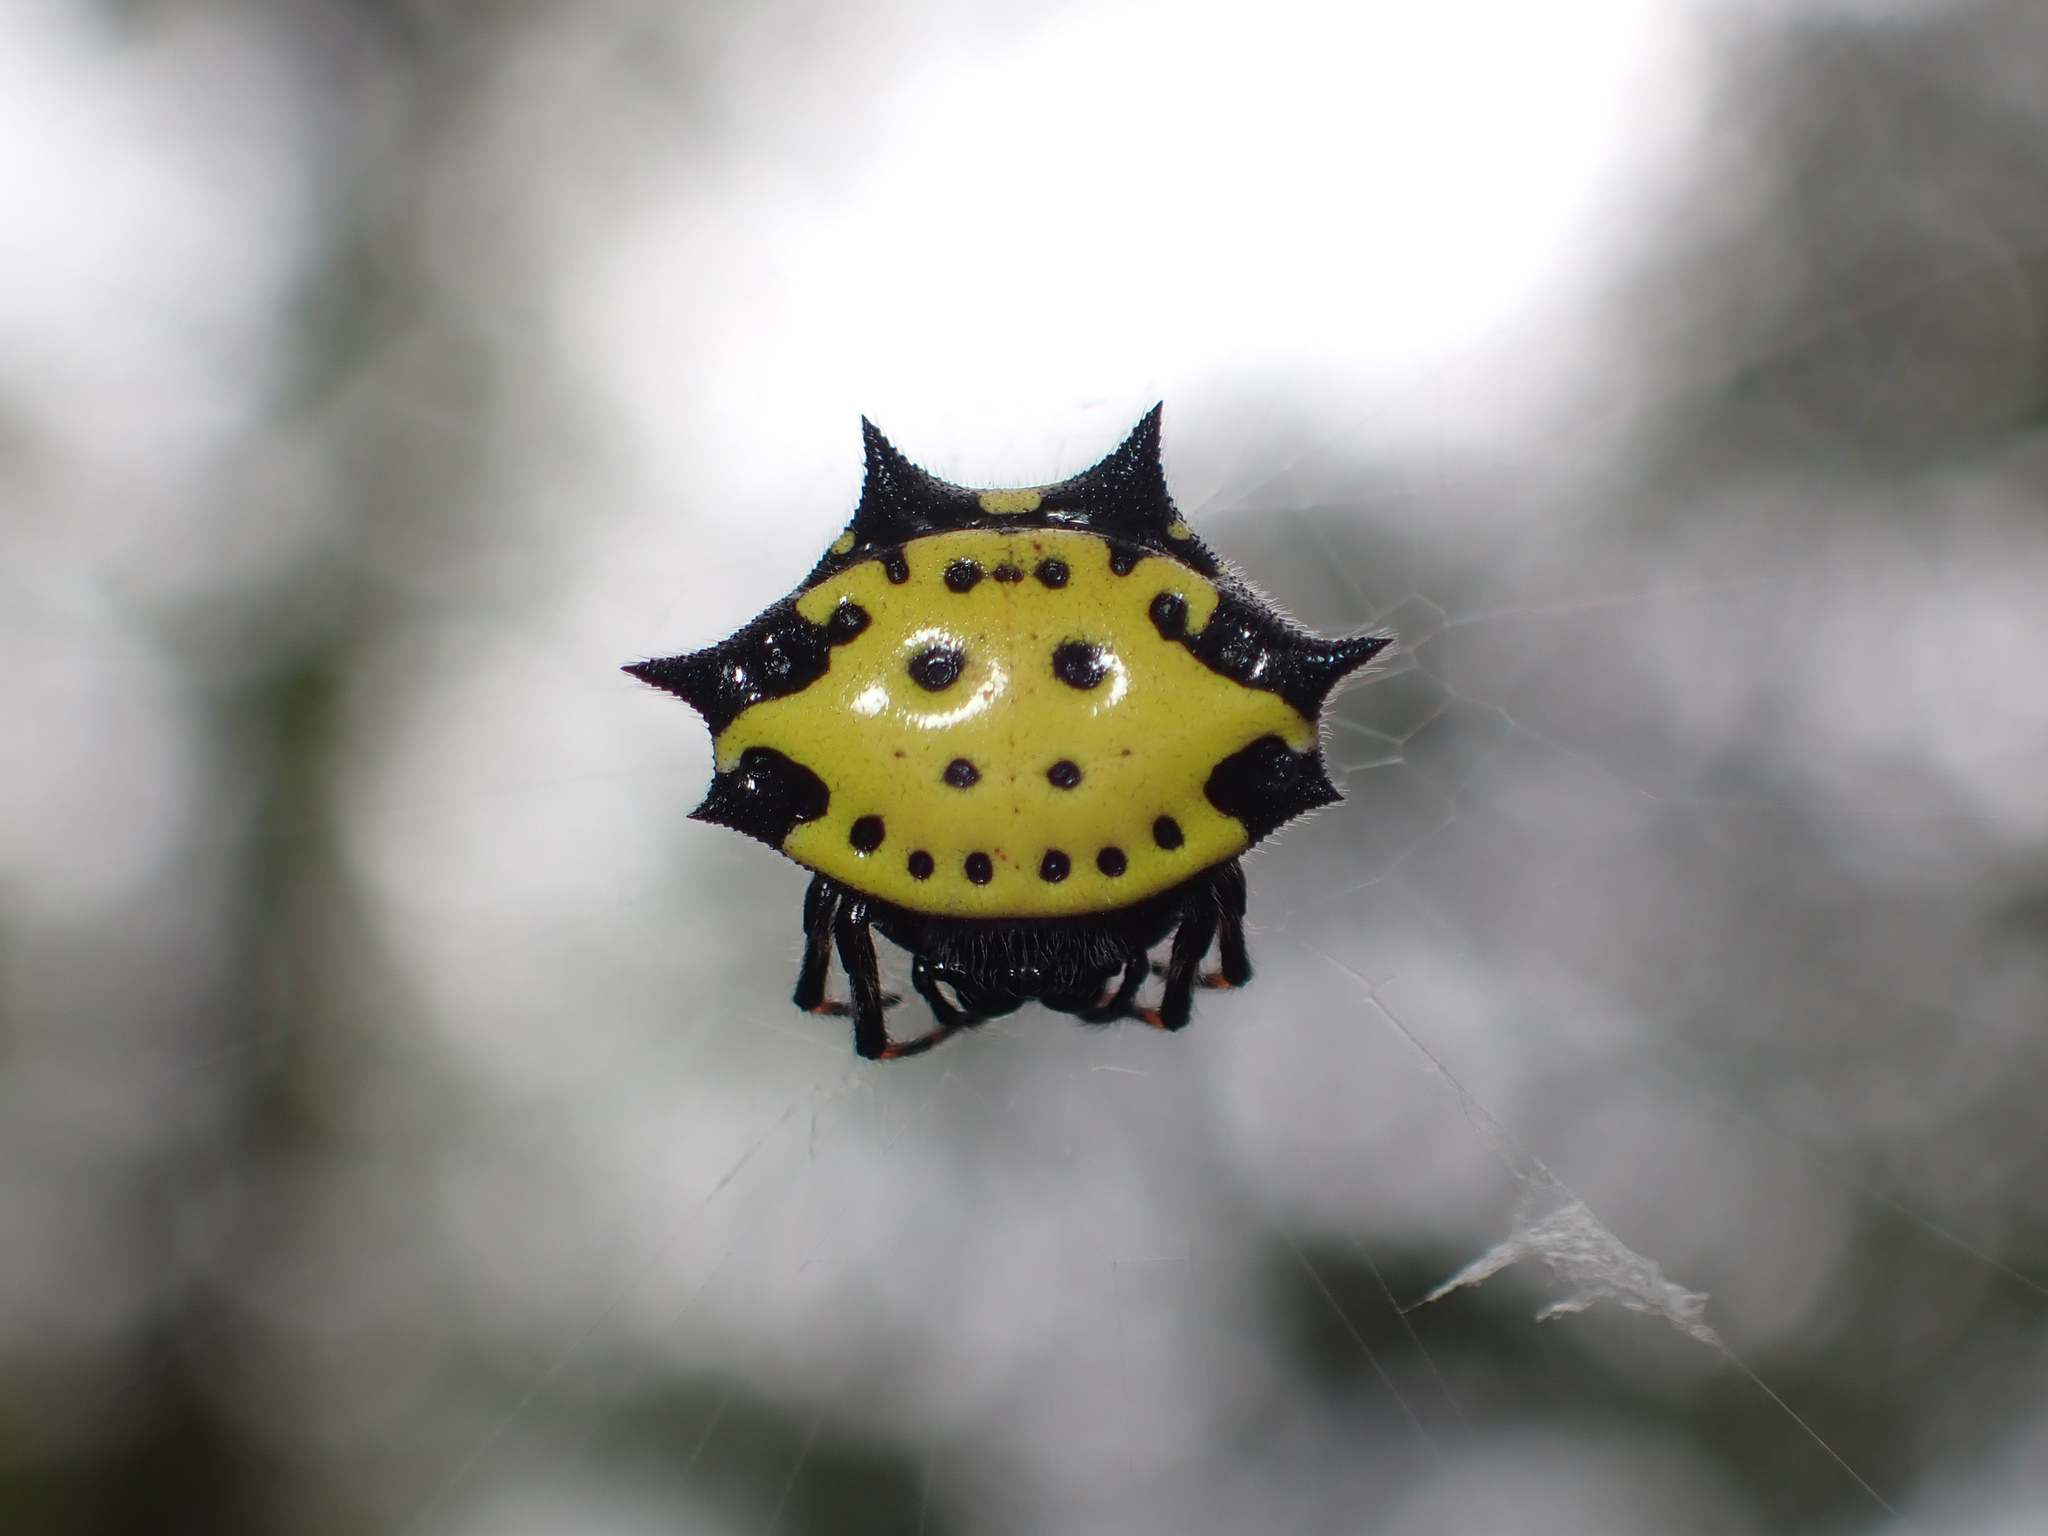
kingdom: Animalia
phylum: Arthropoda
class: Arachnida
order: Araneae
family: Araneidae
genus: Gasteracantha
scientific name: Gasteracantha cancriformis
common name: Orb weavers
